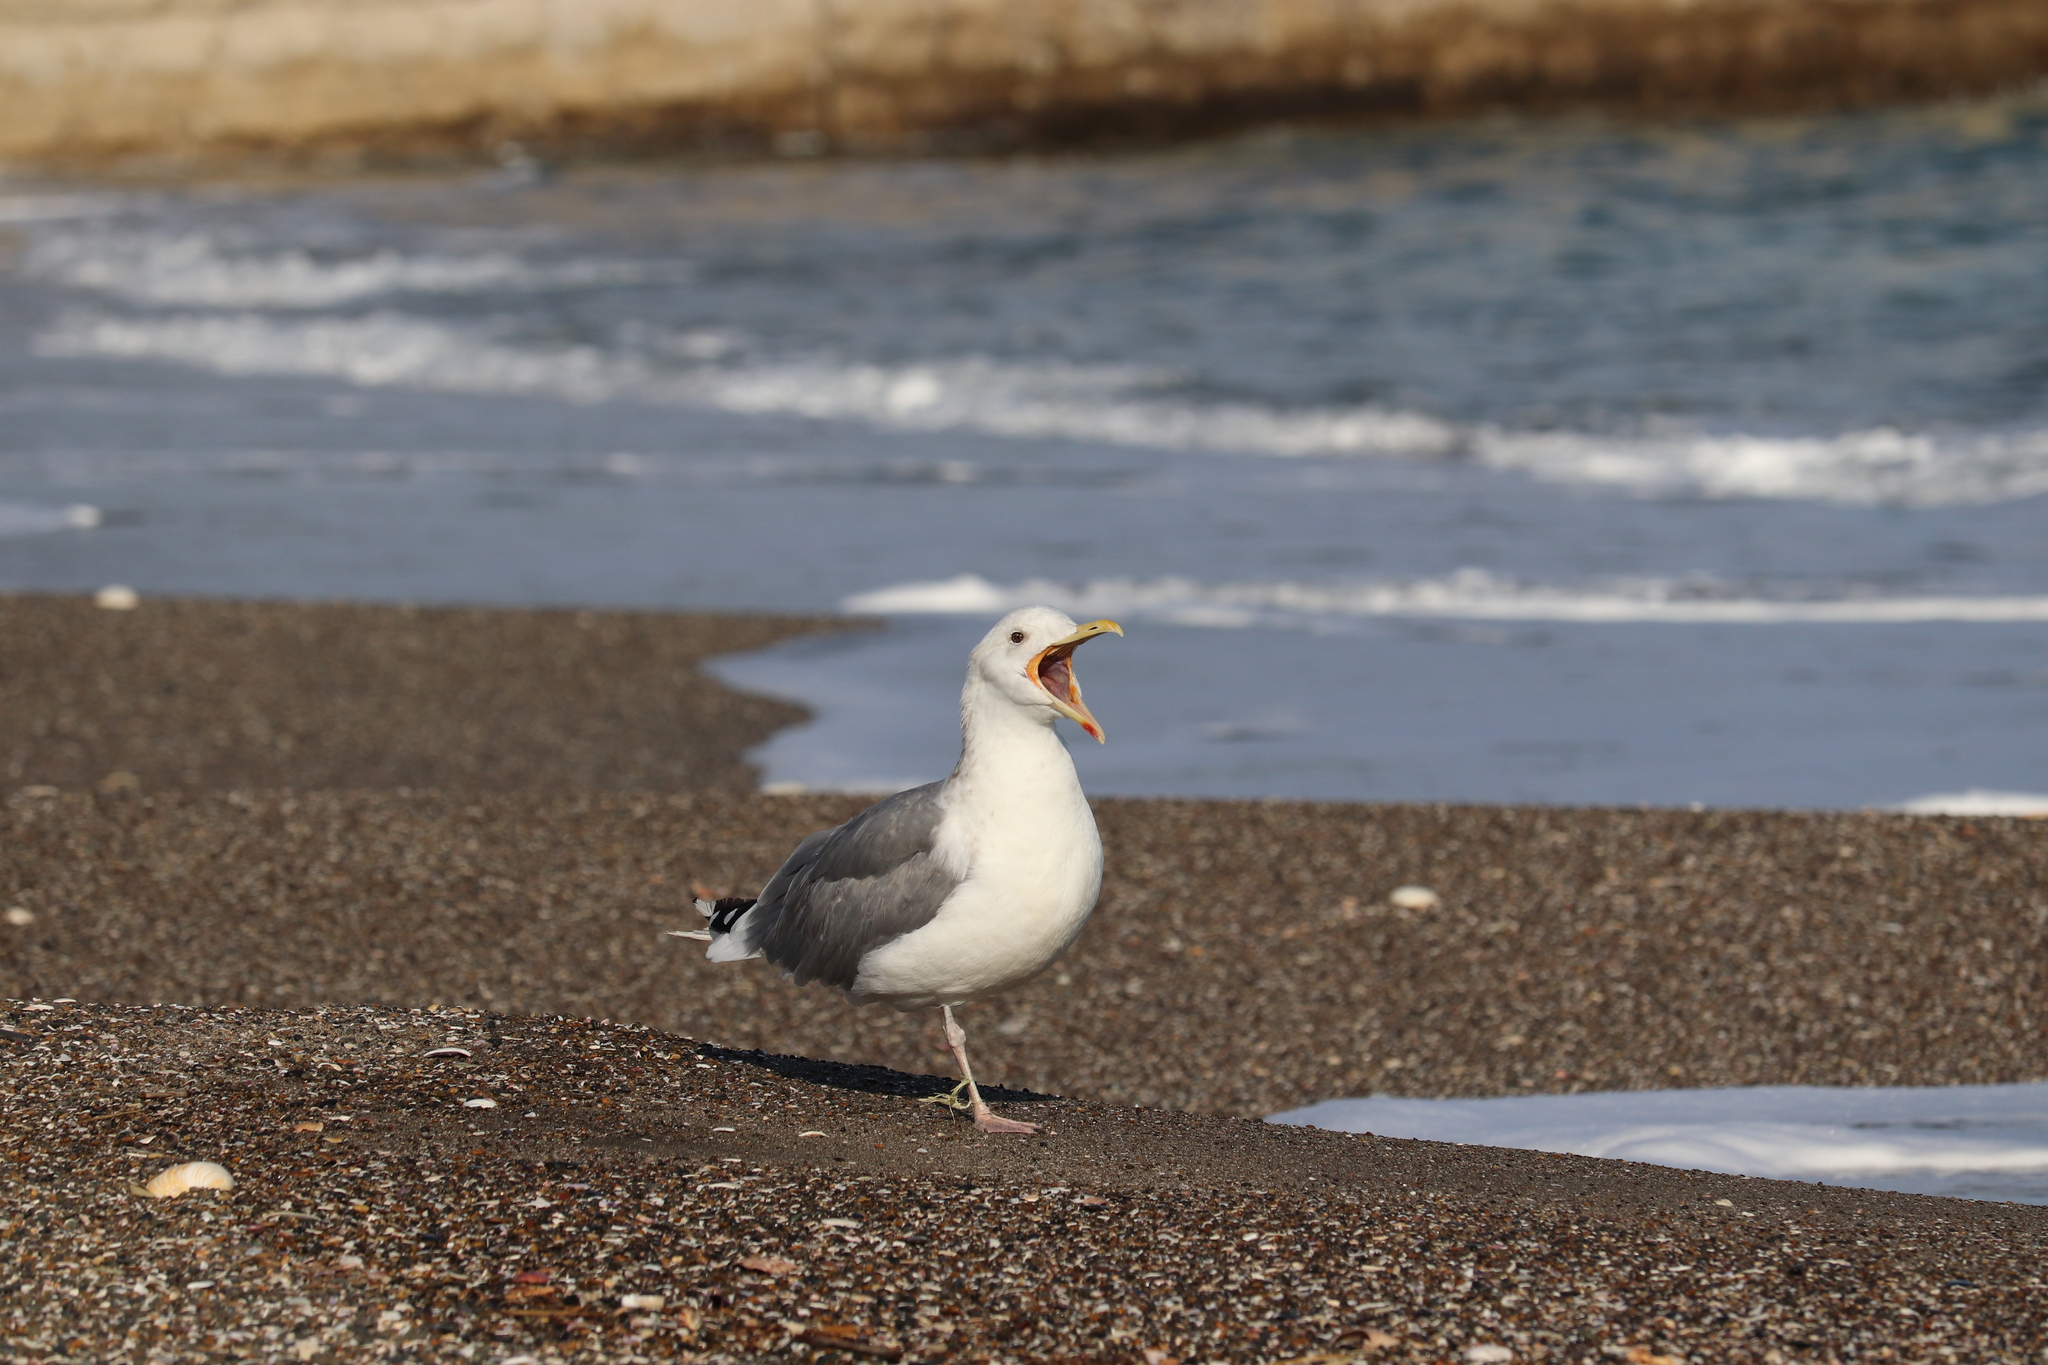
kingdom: Animalia
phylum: Chordata
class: Aves
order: Charadriiformes
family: Laridae
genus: Larus
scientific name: Larus vegae
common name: Vega gull
